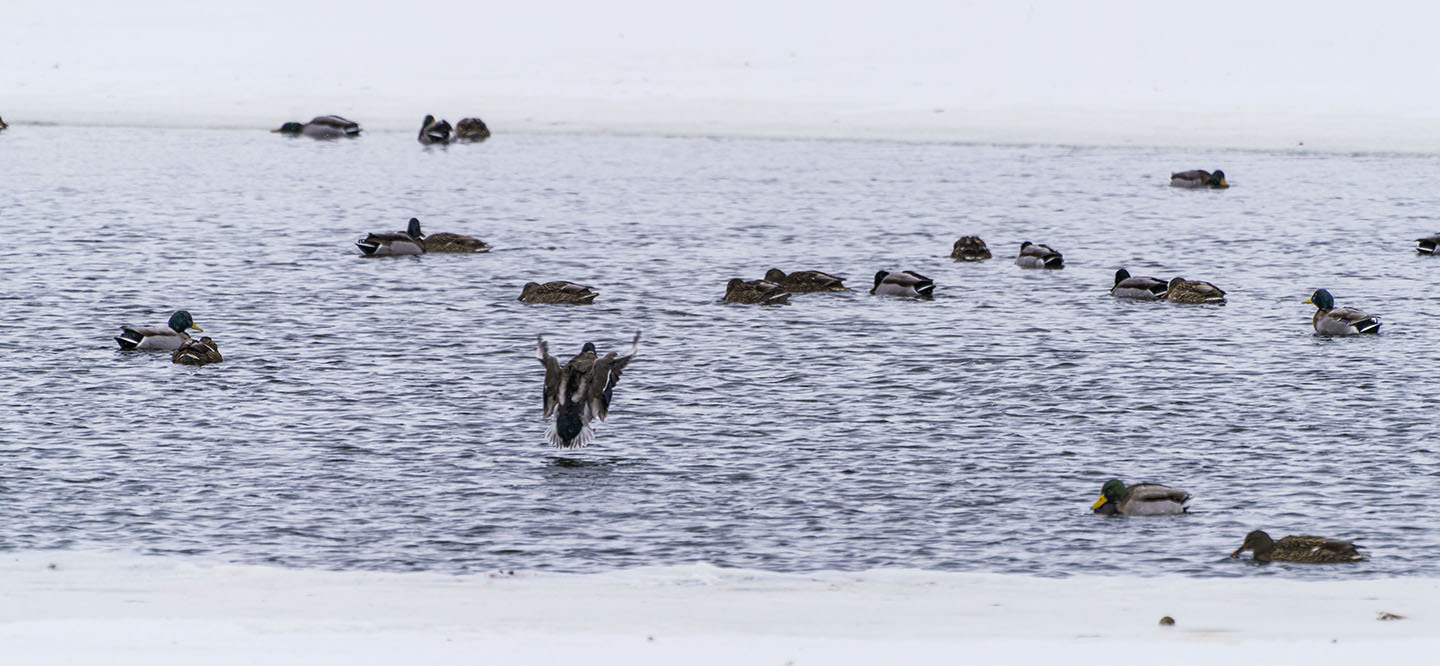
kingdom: Animalia
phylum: Chordata
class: Aves
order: Anseriformes
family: Anatidae
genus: Anas
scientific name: Anas platyrhynchos
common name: Mallard
